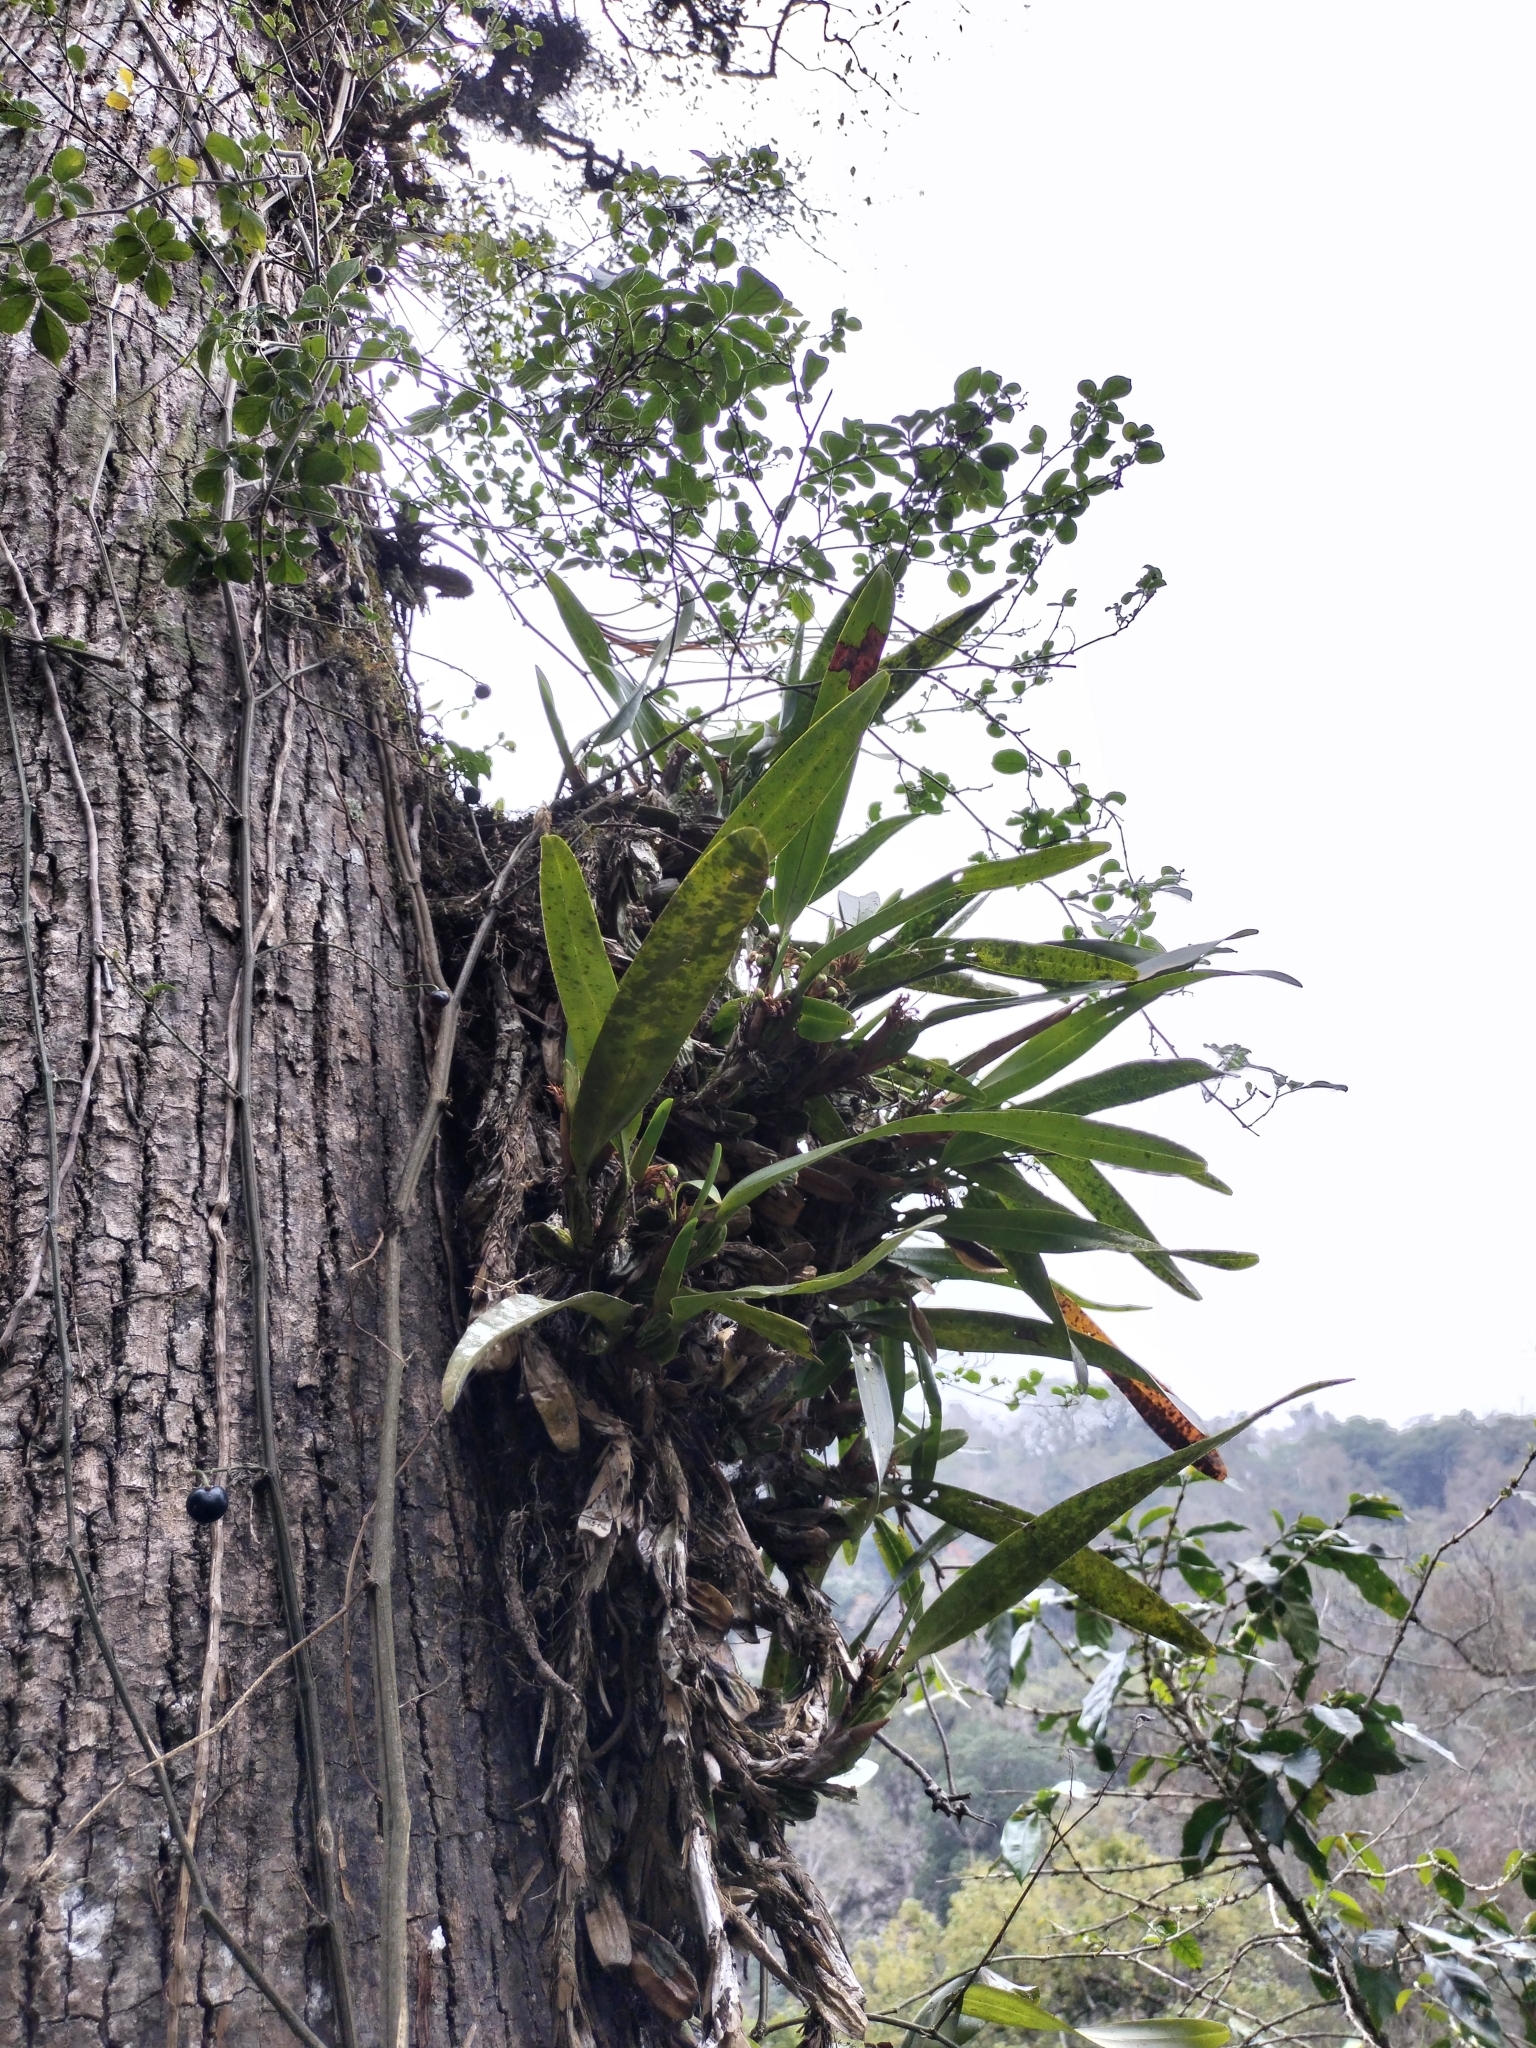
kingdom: Plantae
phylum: Tracheophyta
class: Liliopsida
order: Asparagales
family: Orchidaceae
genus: Maxillaria
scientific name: Maxillaria densa
